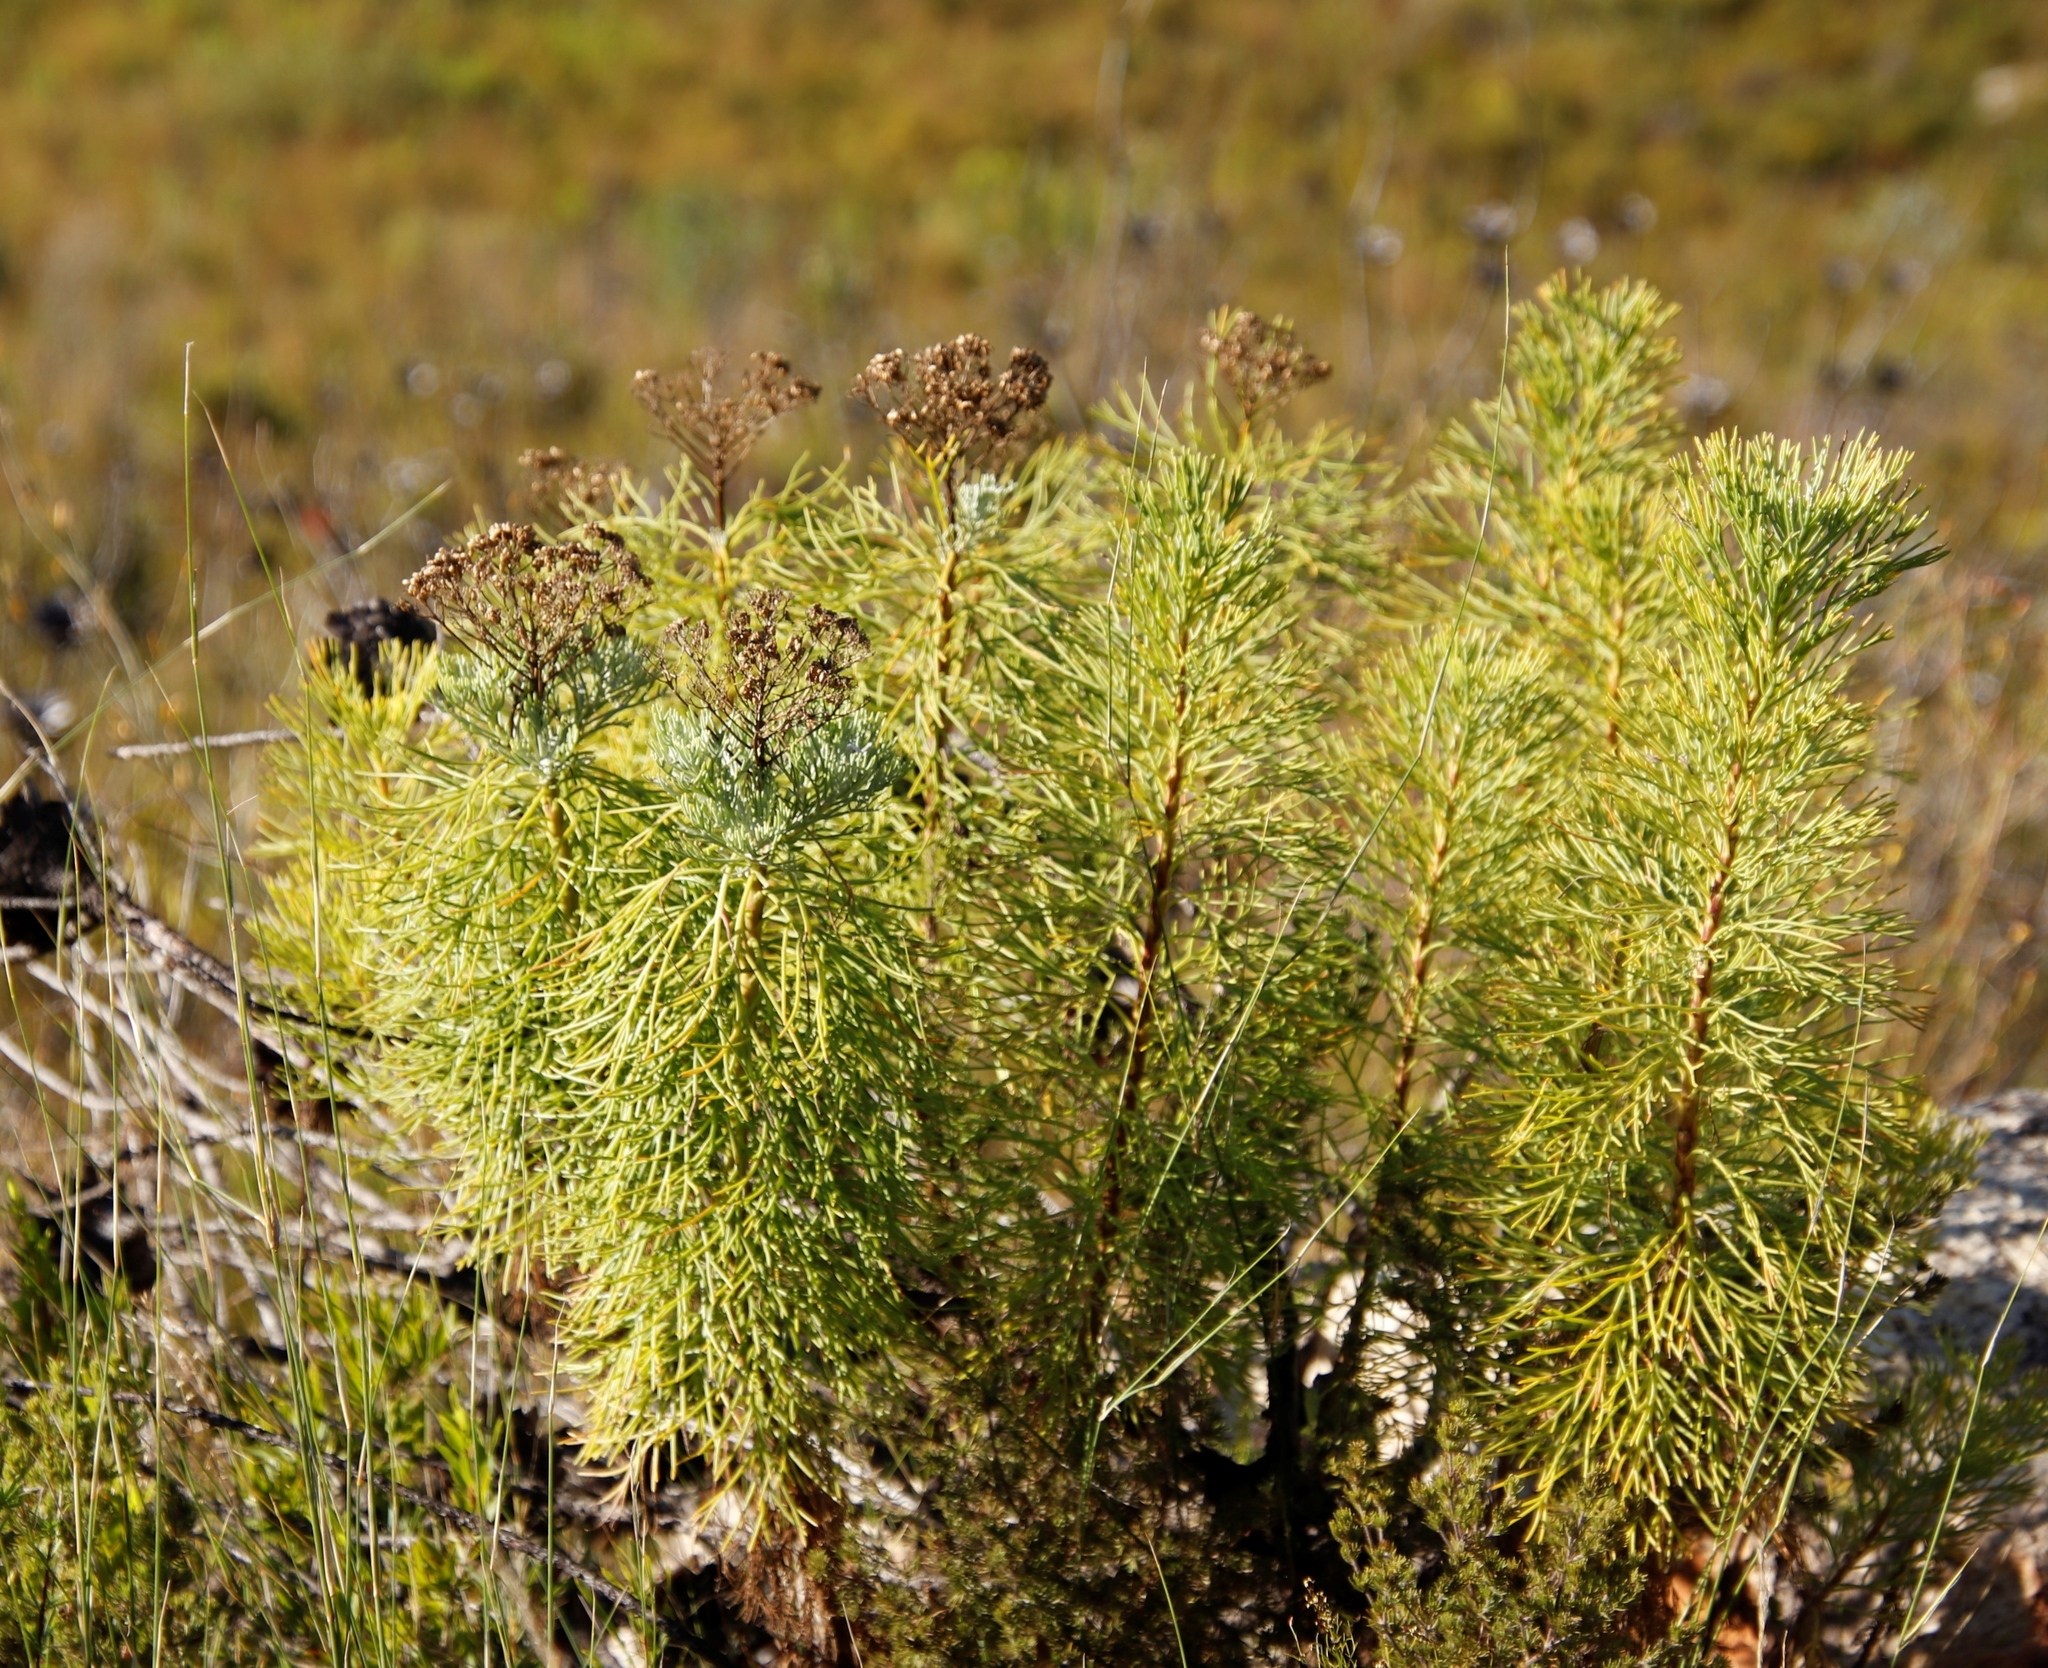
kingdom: Plantae
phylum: Tracheophyta
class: Magnoliopsida
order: Asterales
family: Asteraceae
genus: Athanasia
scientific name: Athanasia crithmifolia
